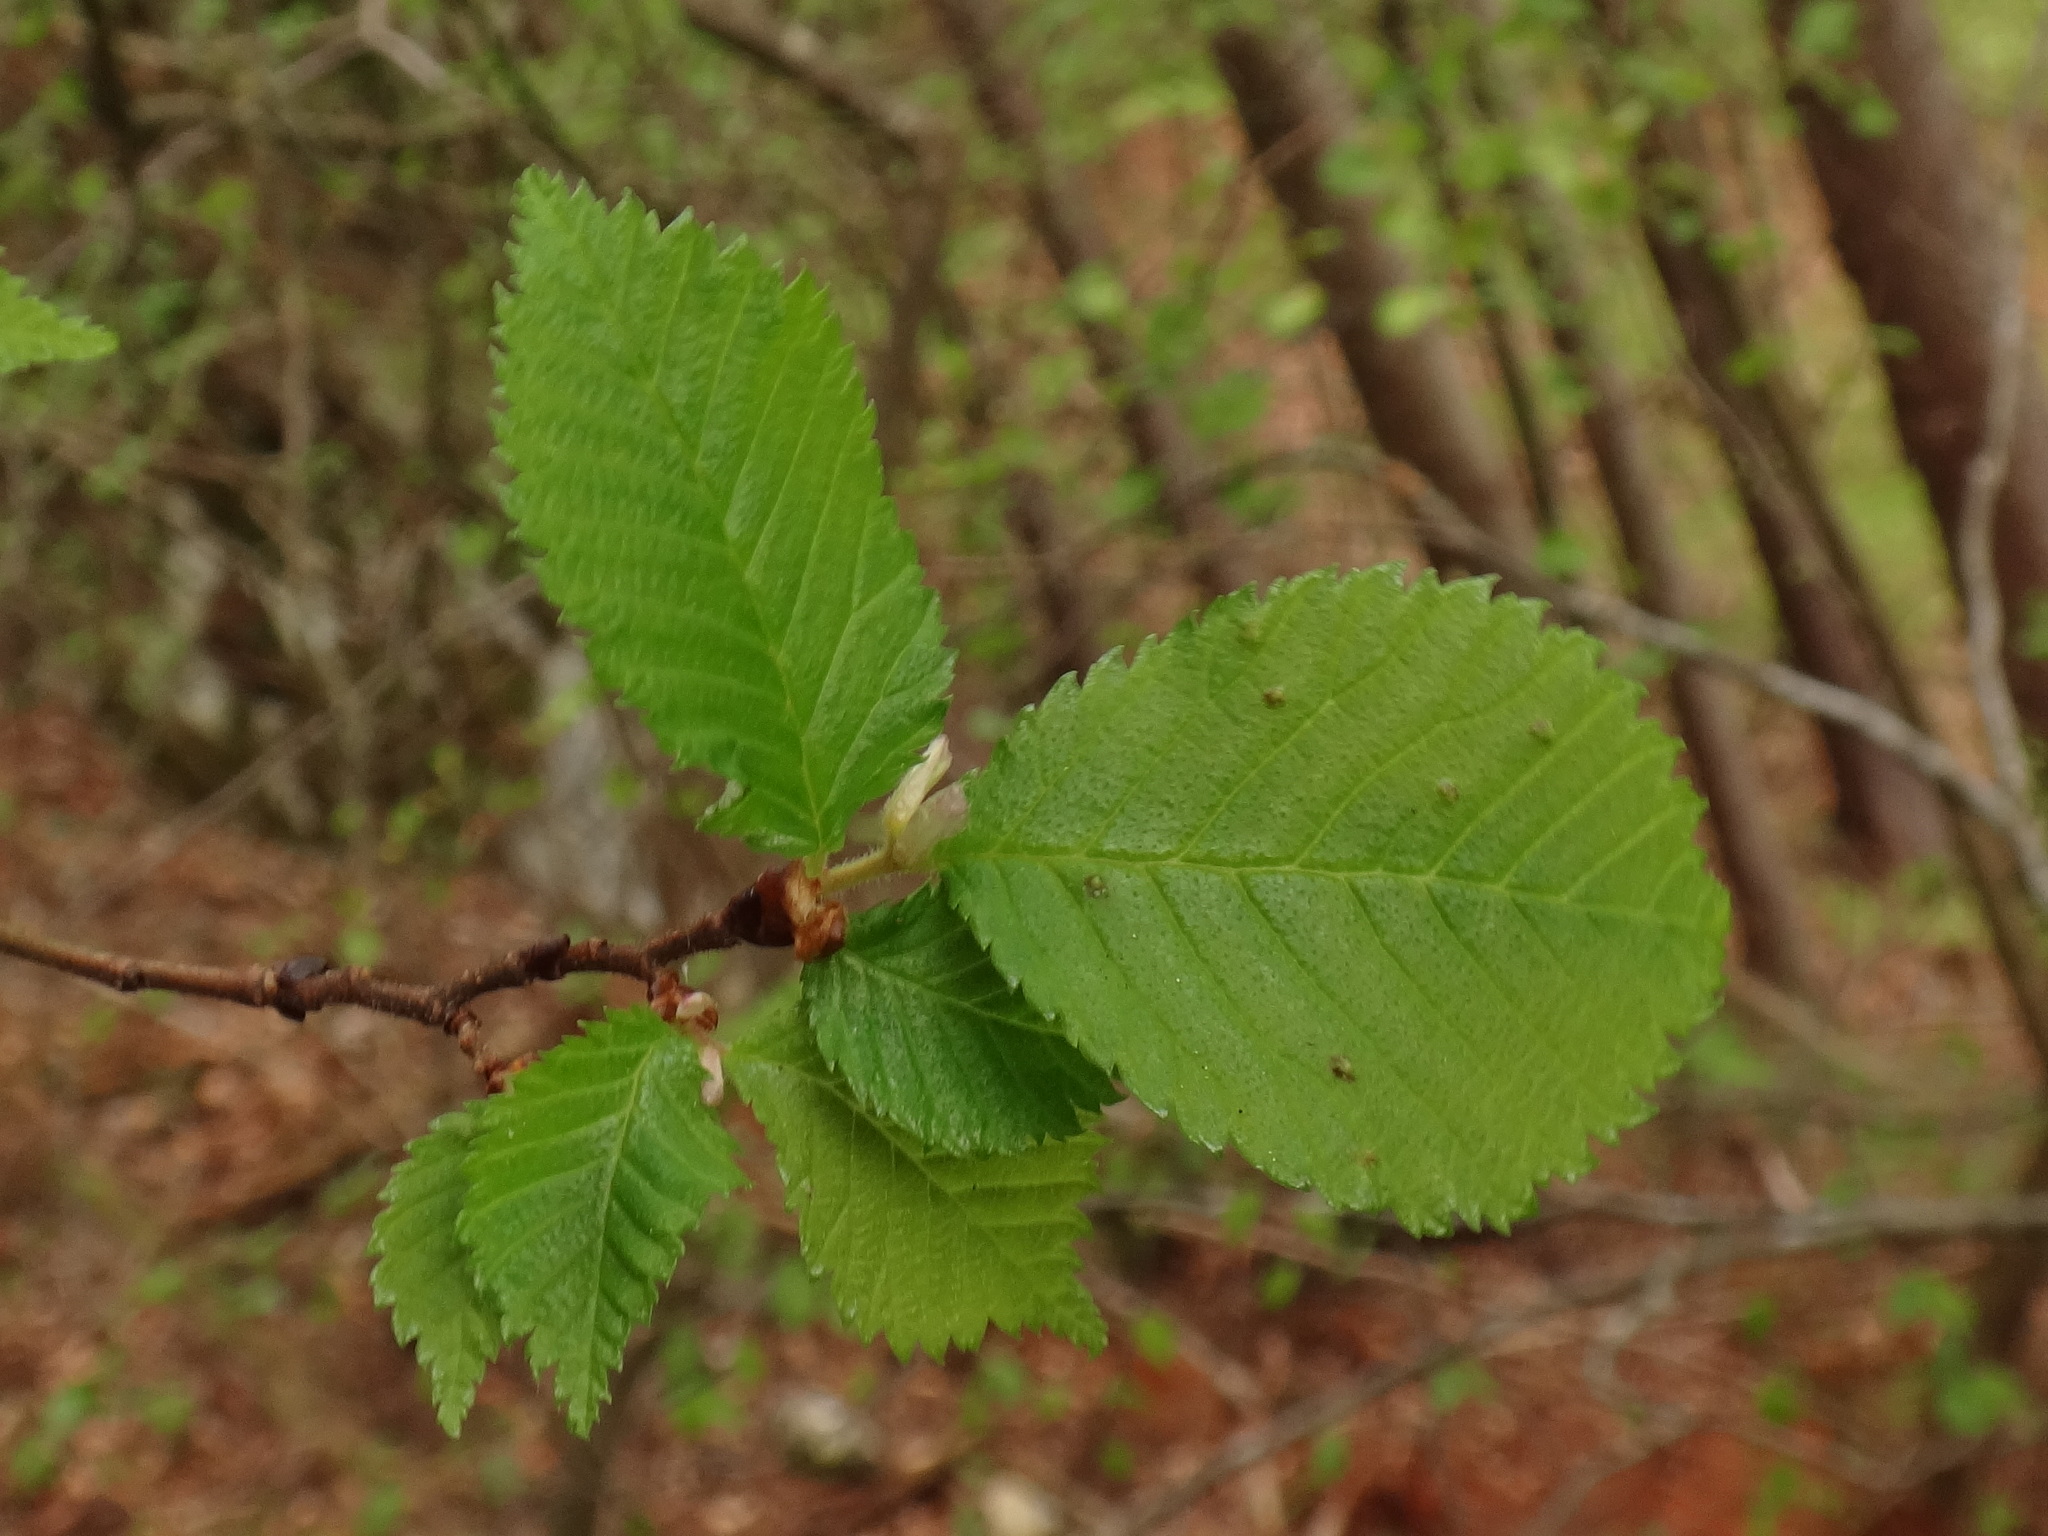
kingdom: Plantae
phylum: Tracheophyta
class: Magnoliopsida
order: Rosales
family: Ulmaceae
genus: Ulmus
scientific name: Ulmus glabra
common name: Wych elm
